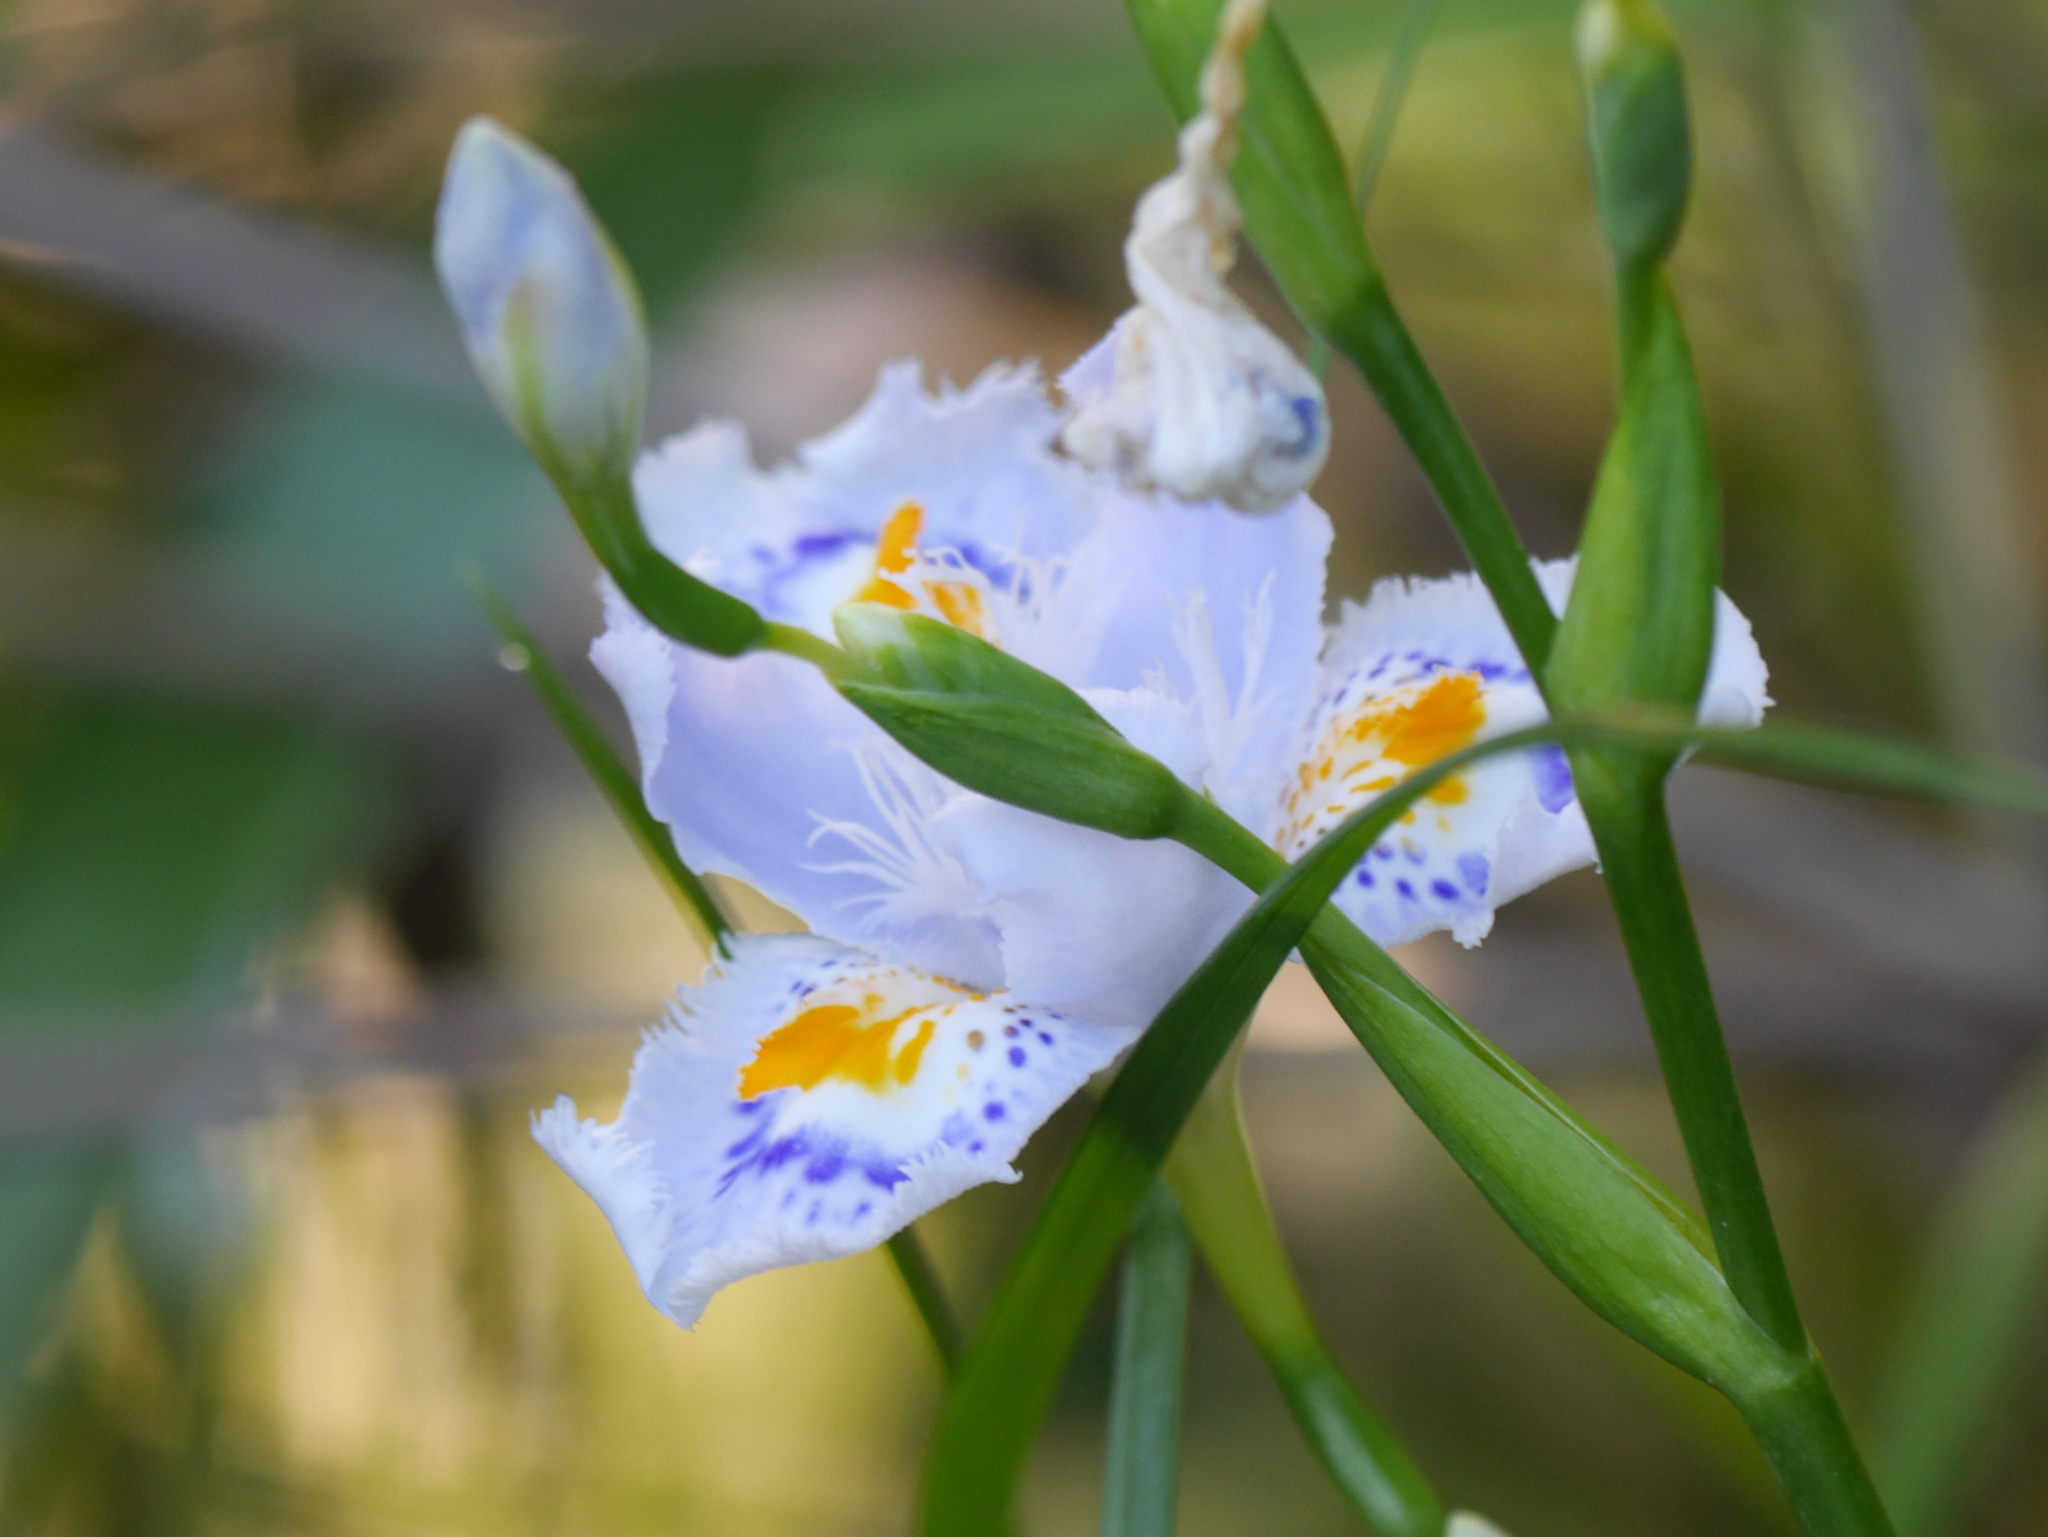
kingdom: Plantae
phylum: Tracheophyta
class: Liliopsida
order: Asparagales
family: Iridaceae
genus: Iris
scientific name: Iris japonica
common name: Butterfly-flower
